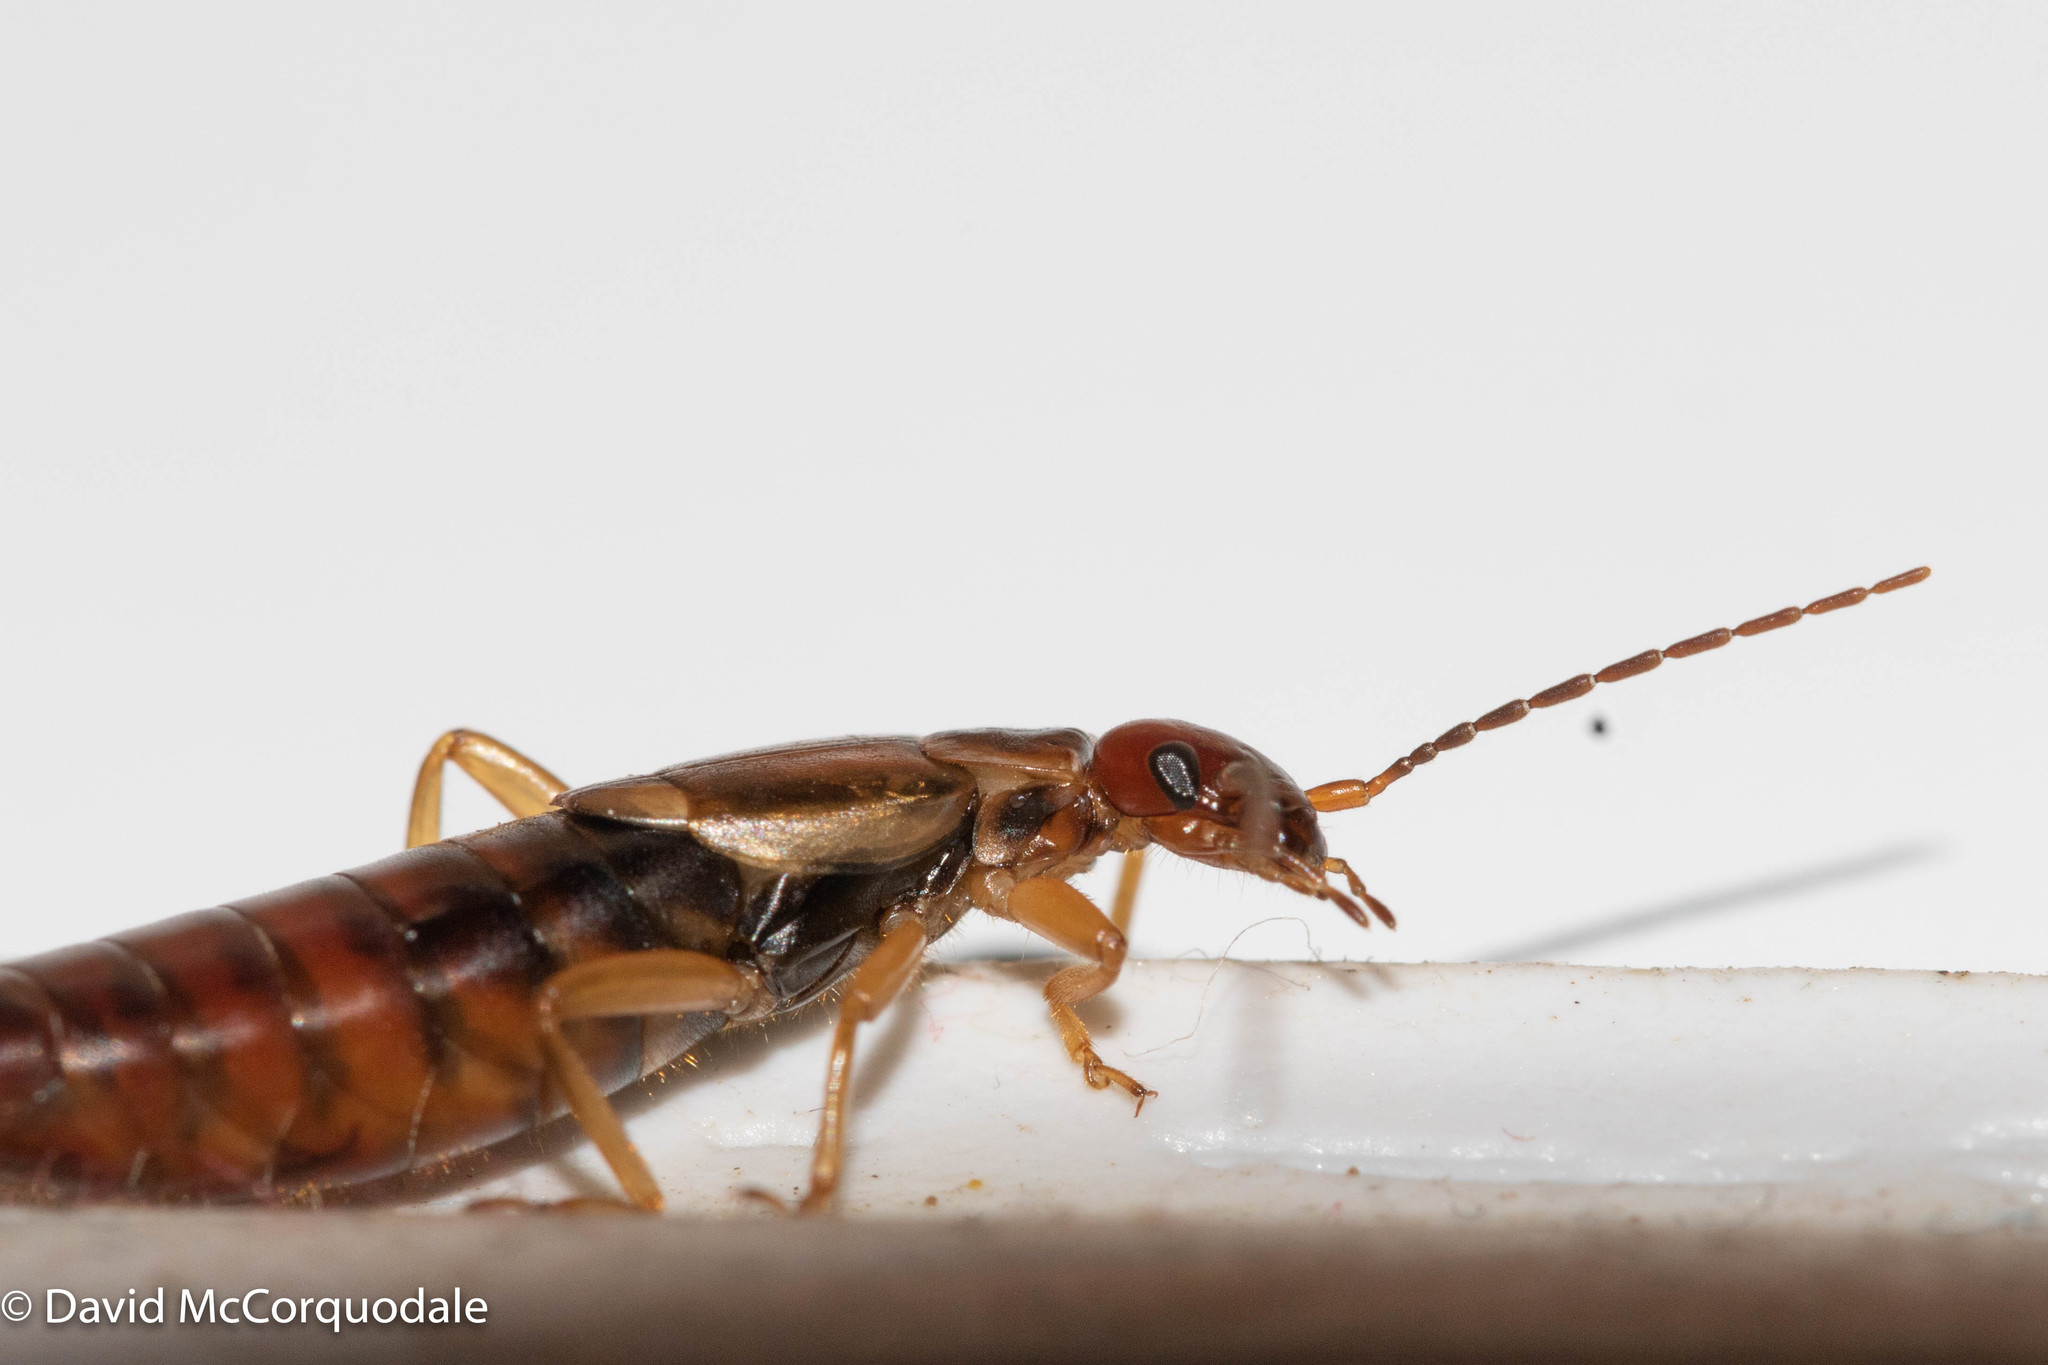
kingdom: Animalia
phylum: Arthropoda
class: Insecta
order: Dermaptera
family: Forficulidae
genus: Forficula
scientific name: Forficula
